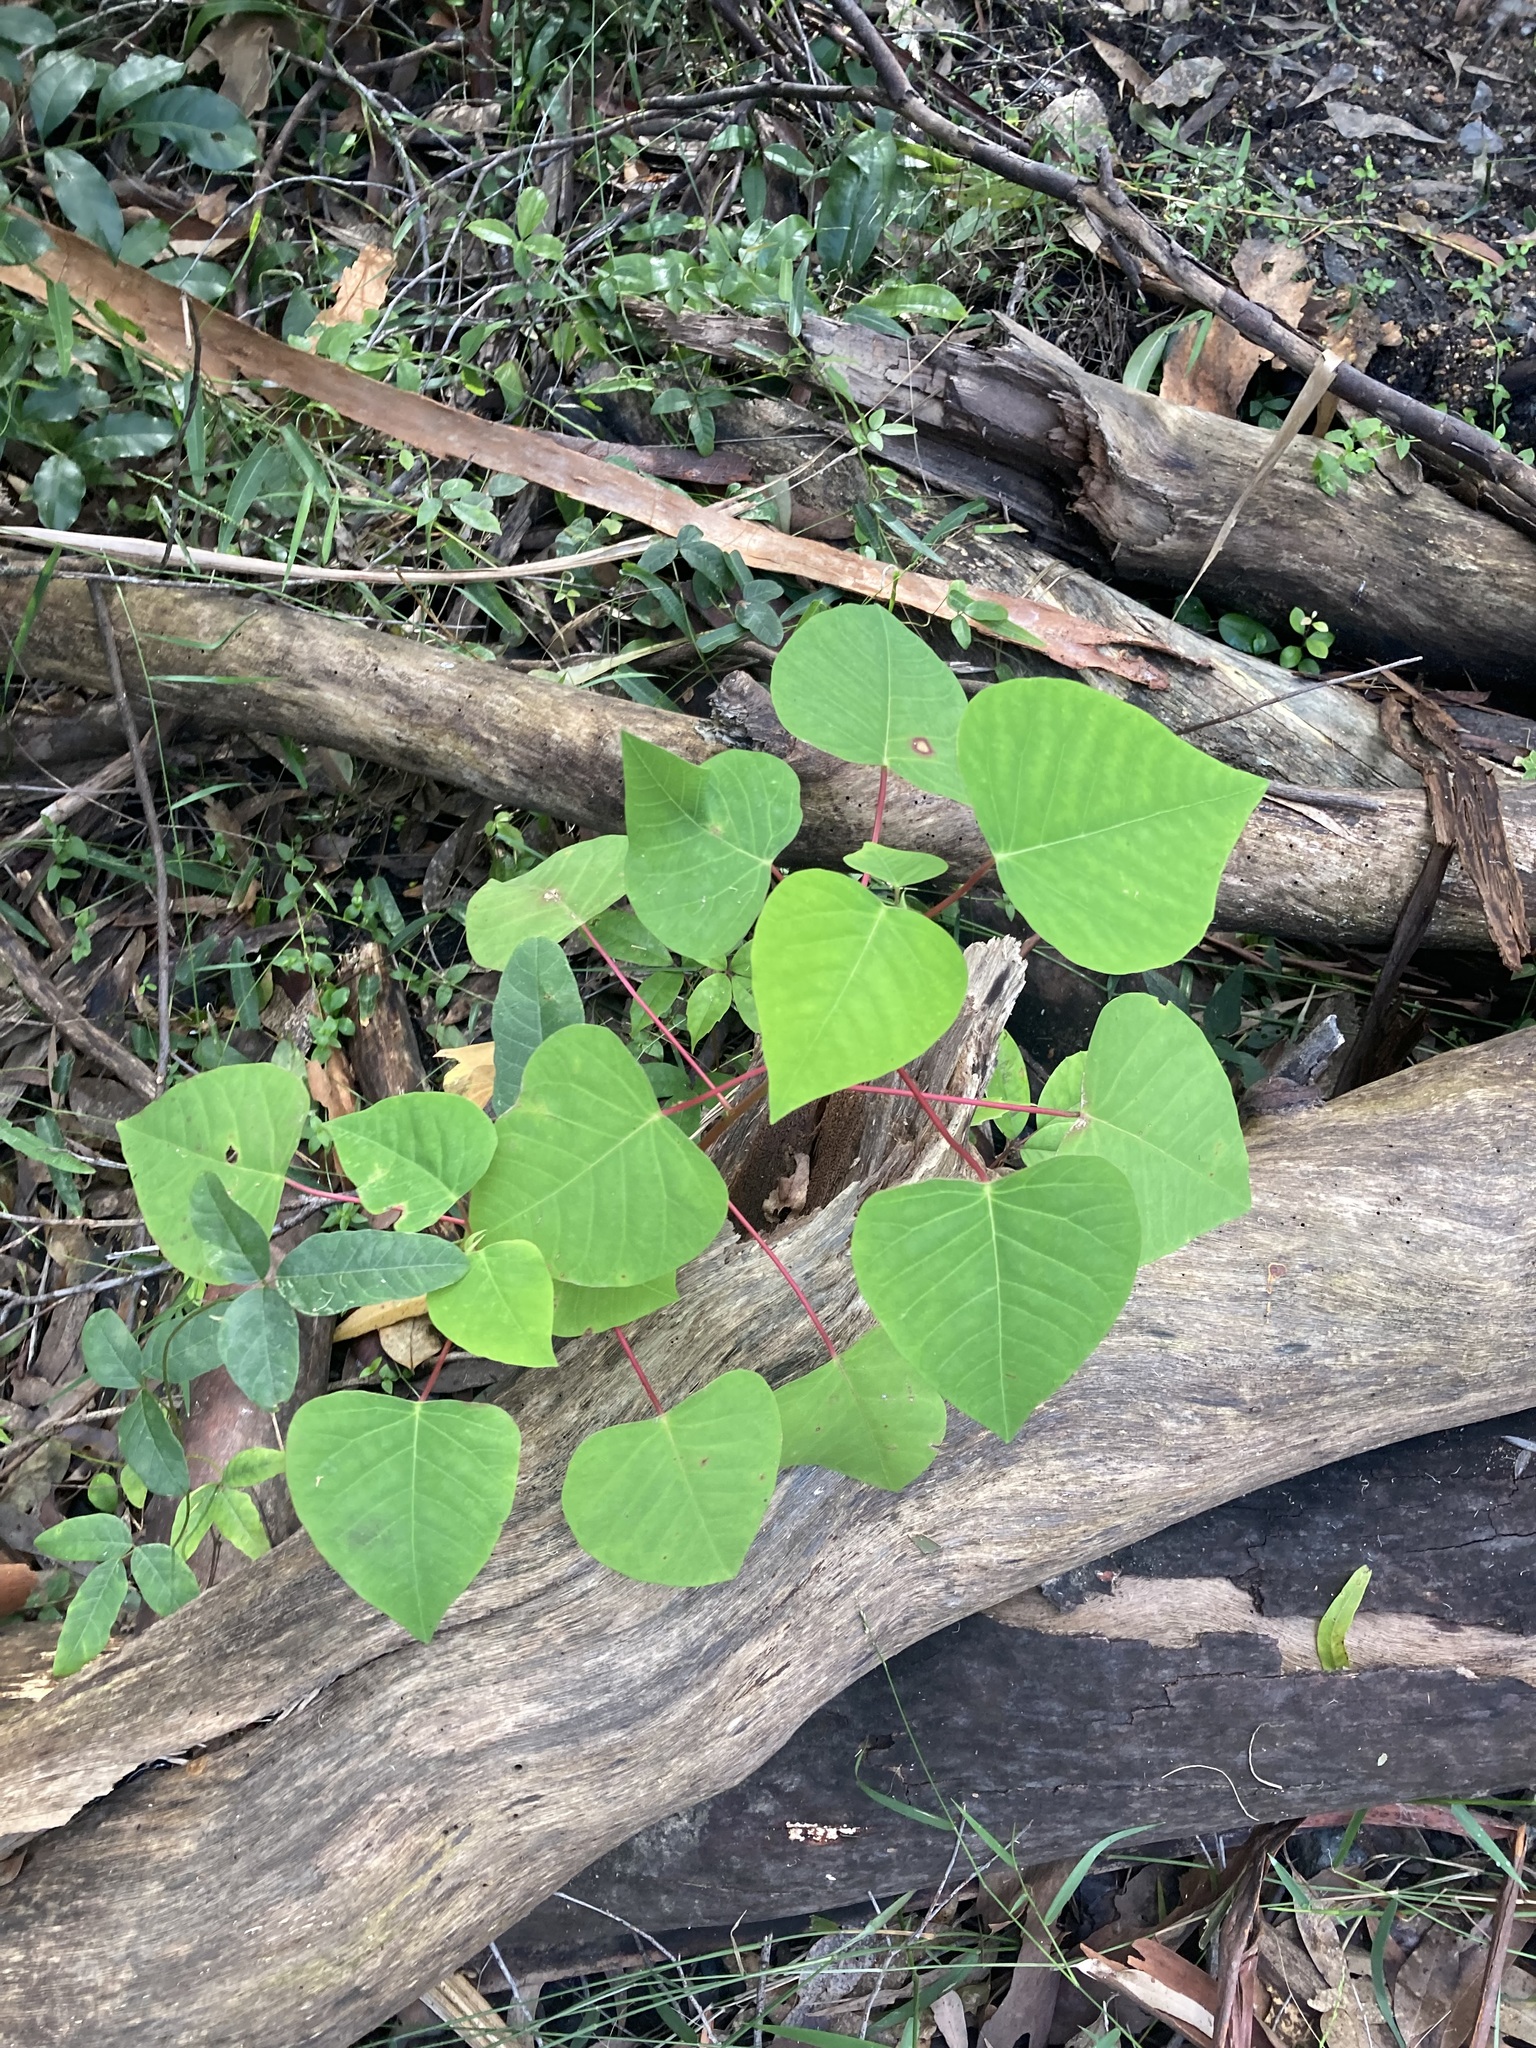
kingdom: Plantae
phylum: Tracheophyta
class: Magnoliopsida
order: Malpighiales
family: Euphorbiaceae
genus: Homalanthus
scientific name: Homalanthus populifolius
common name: Queensland poplar
